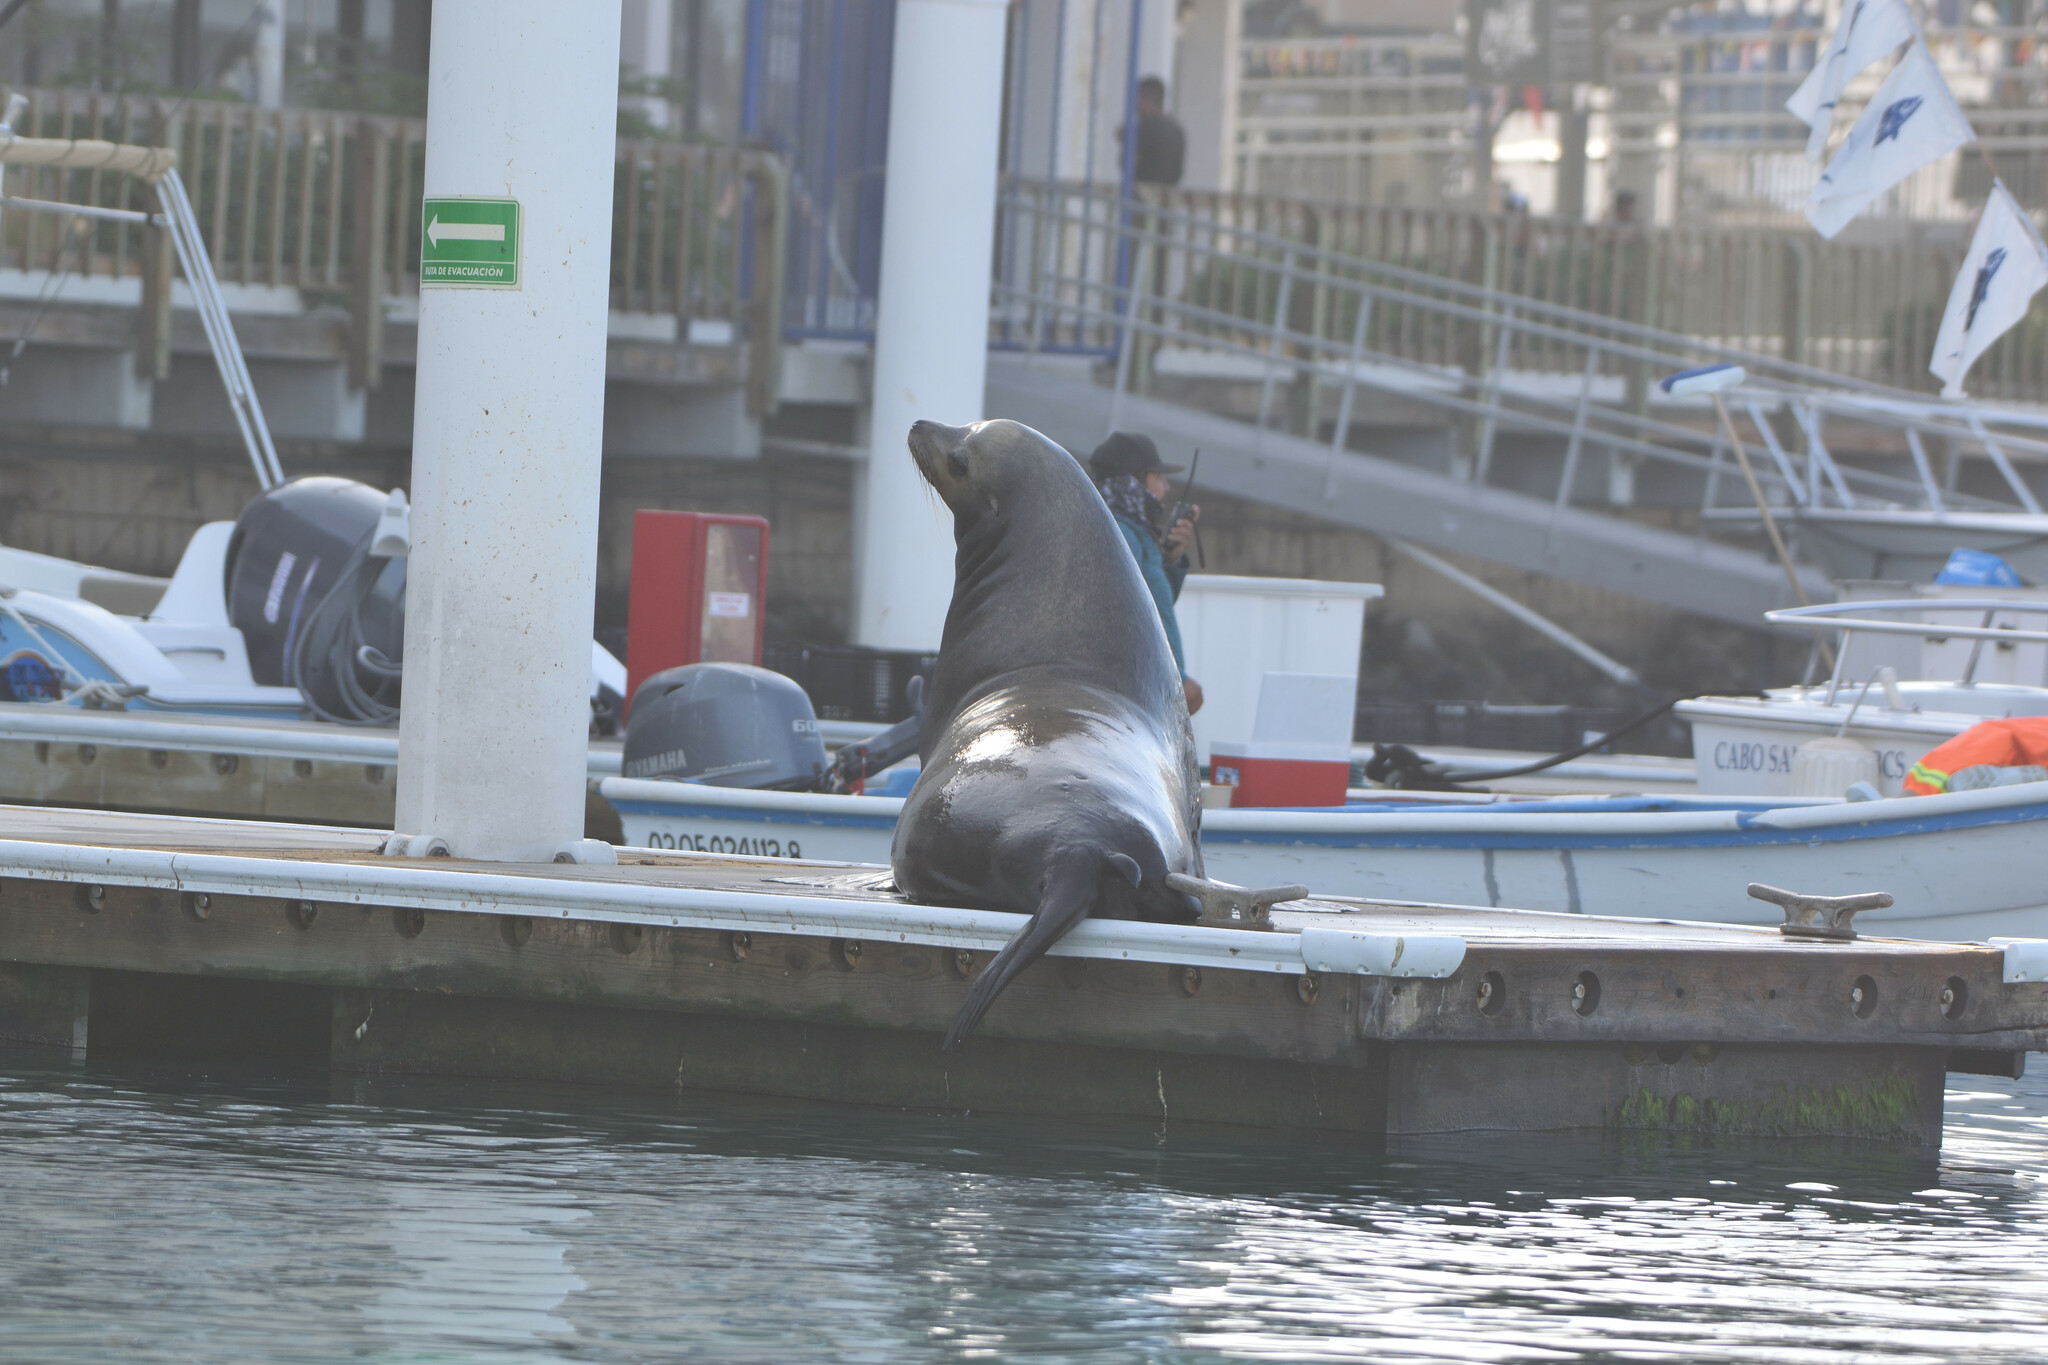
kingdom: Animalia
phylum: Chordata
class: Mammalia
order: Carnivora
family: Otariidae
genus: Zalophus
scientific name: Zalophus californianus
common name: California sea lion
